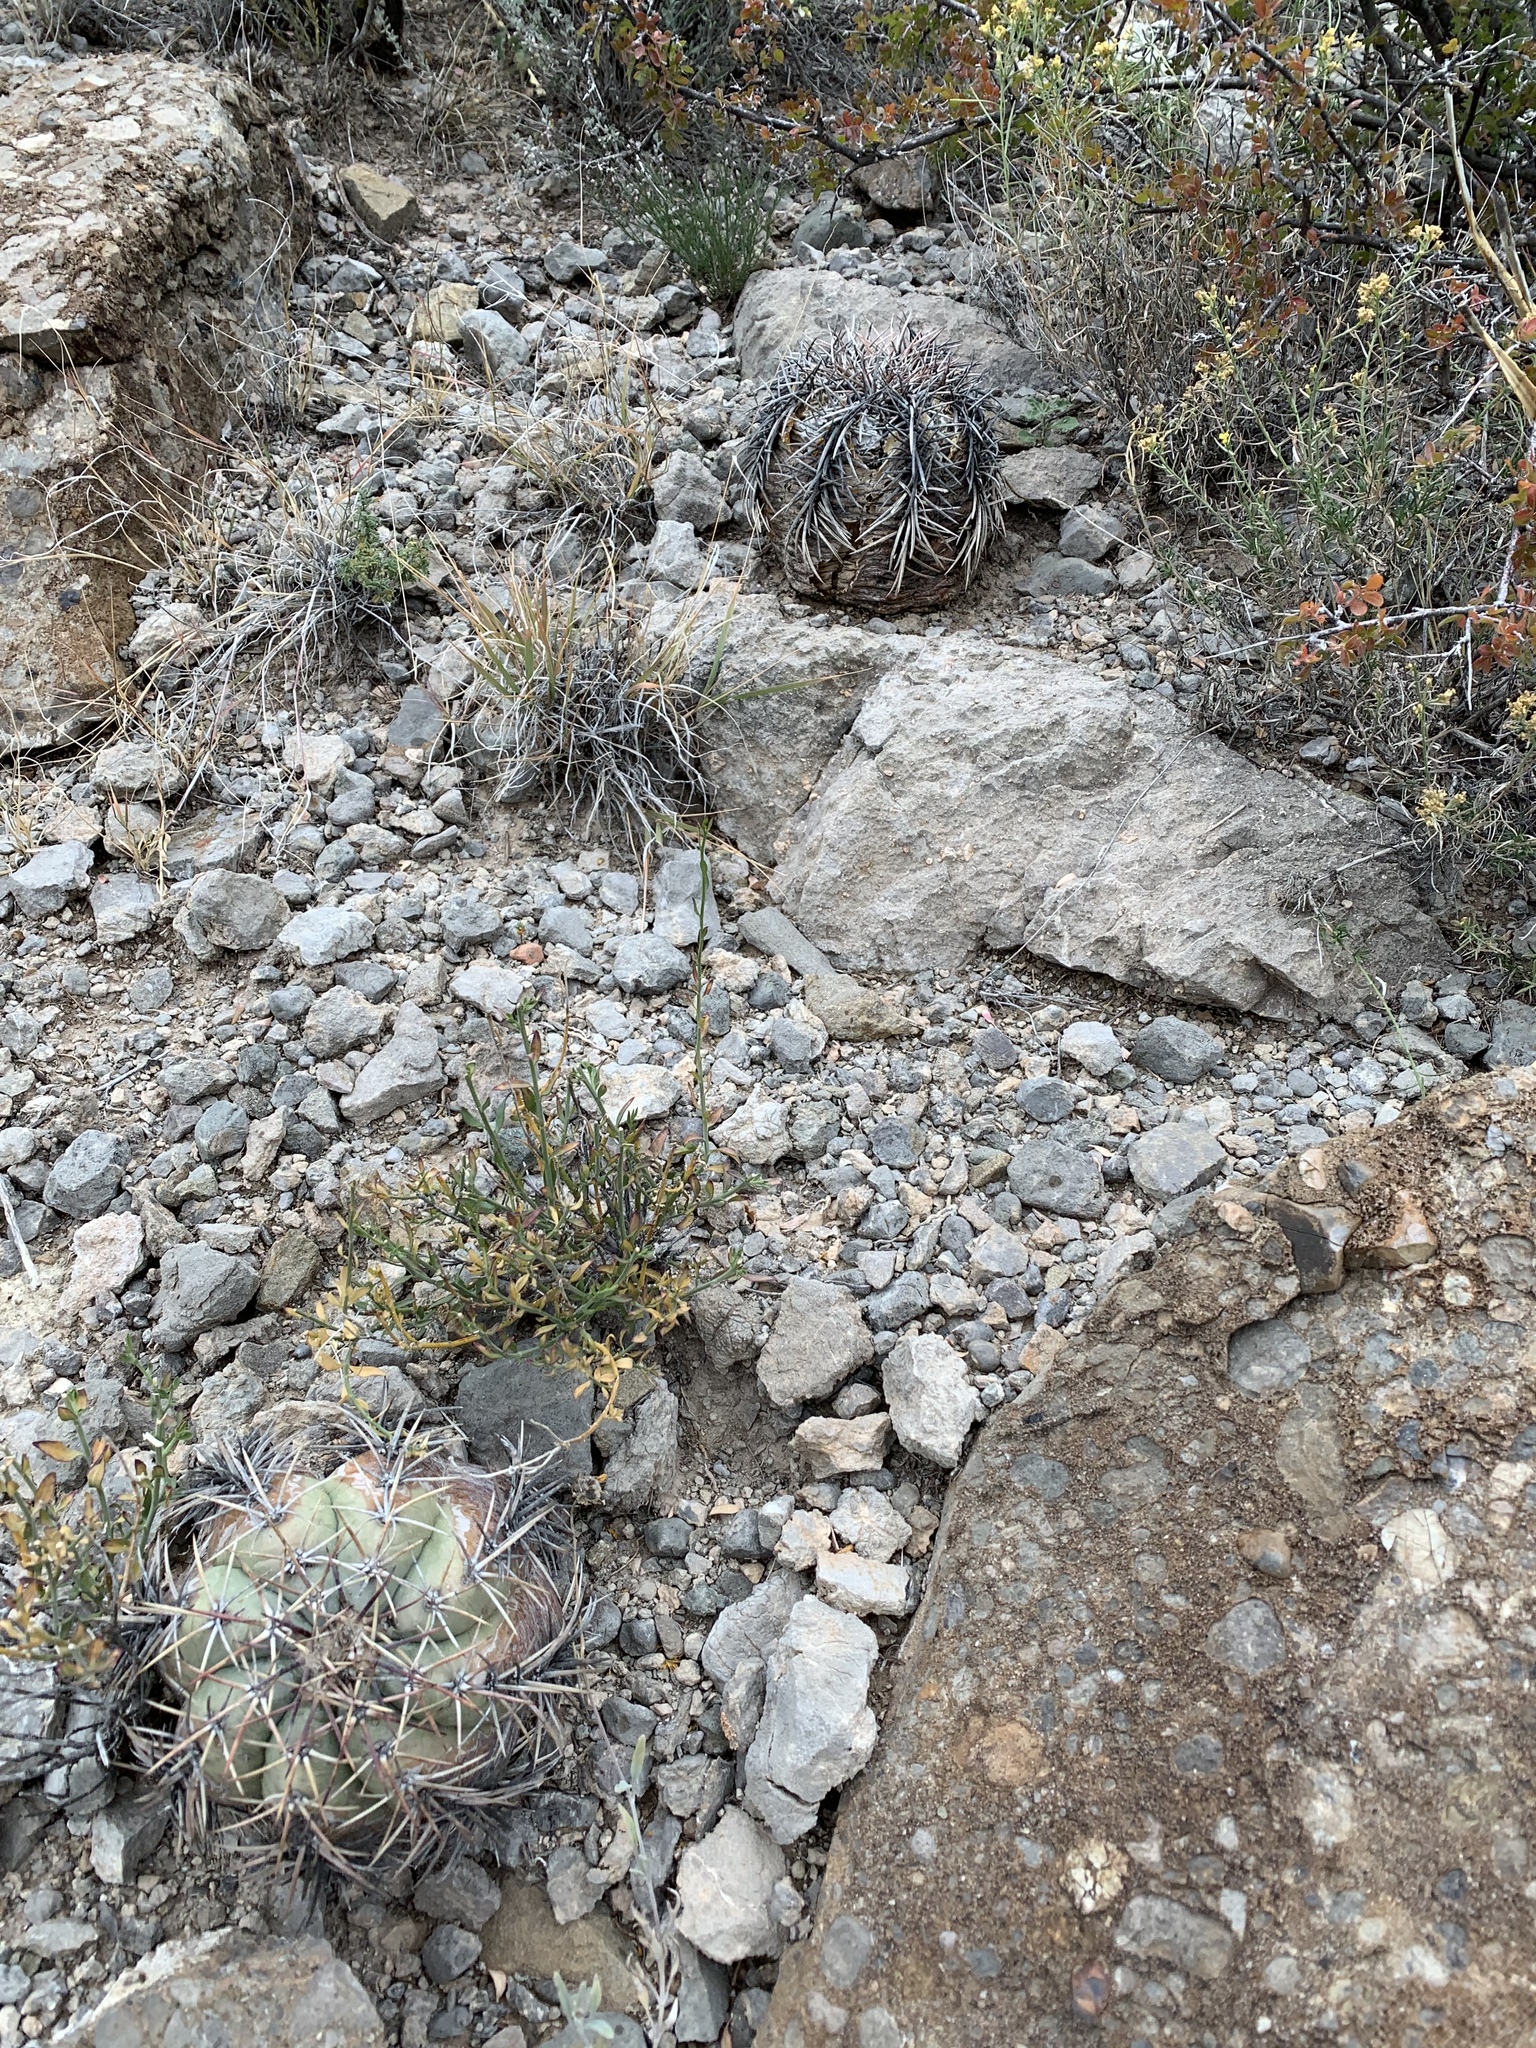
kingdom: Plantae
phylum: Tracheophyta
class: Magnoliopsida
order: Caryophyllales
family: Cactaceae
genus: Echinocactus
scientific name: Echinocactus horizonthalonius
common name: Devilshead
